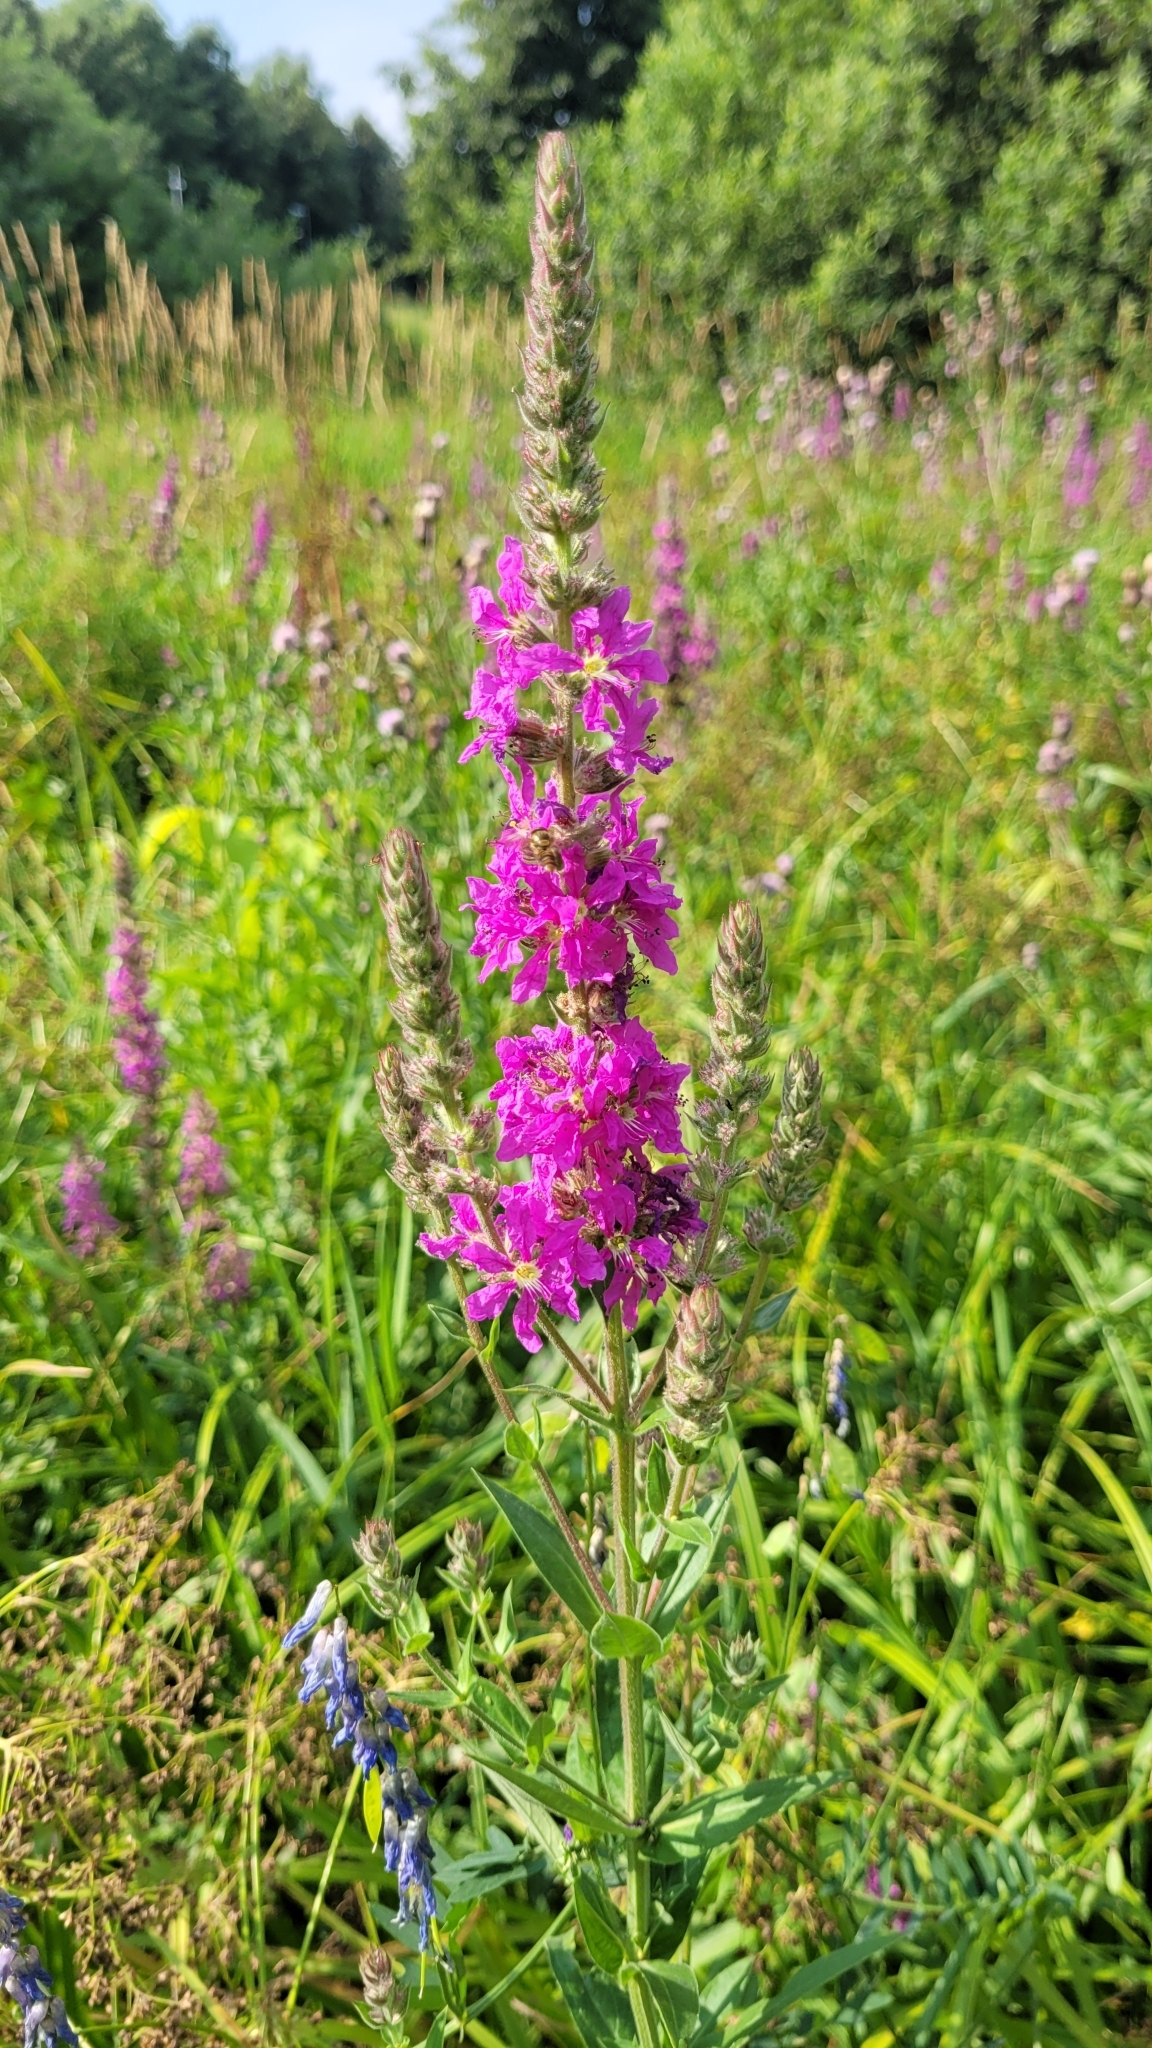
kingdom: Plantae
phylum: Tracheophyta
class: Magnoliopsida
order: Myrtales
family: Lythraceae
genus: Lythrum
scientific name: Lythrum salicaria
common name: Purple loosestrife
